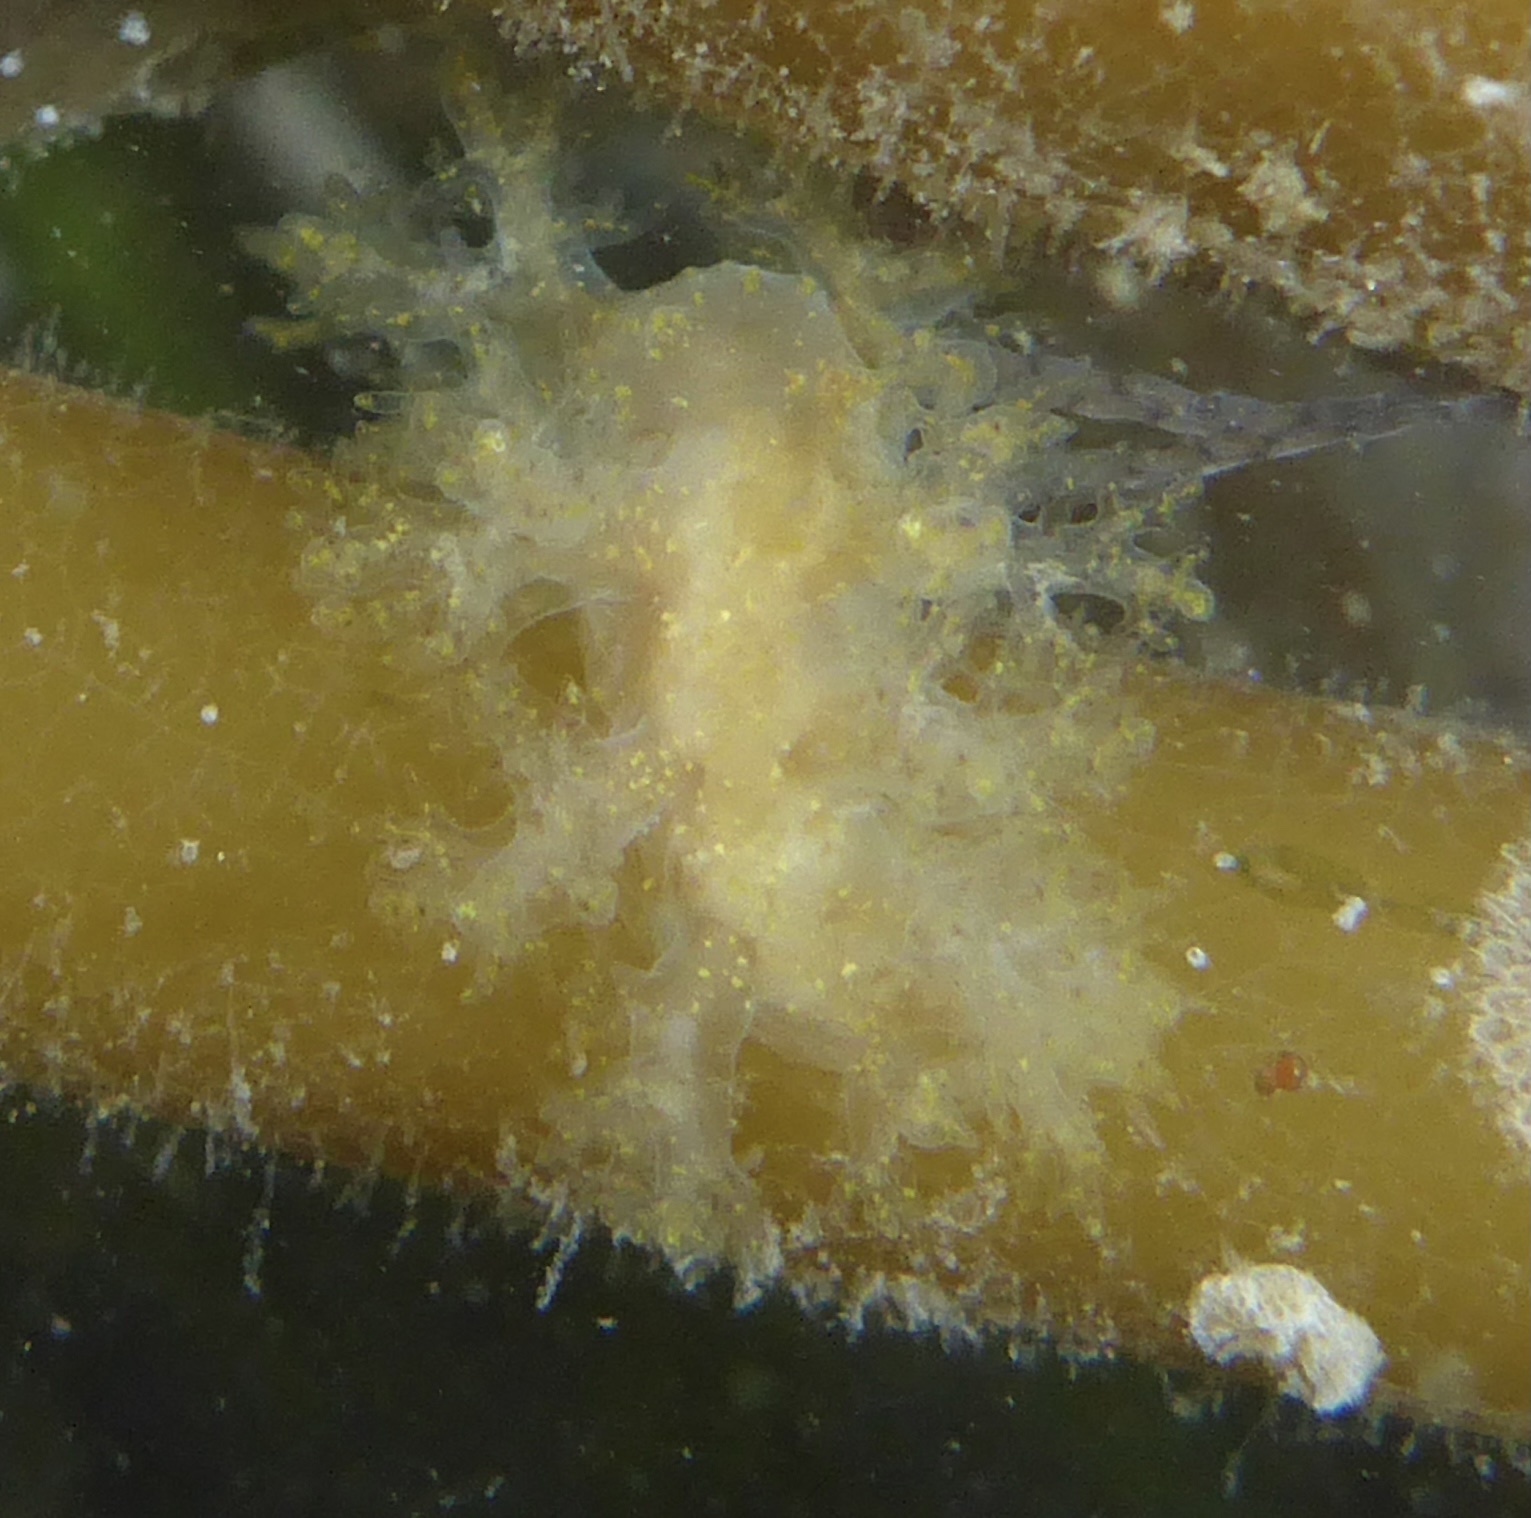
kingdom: Animalia
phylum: Mollusca
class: Gastropoda
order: Nudibranchia
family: Dendronotidae
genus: Dendronotus
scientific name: Dendronotus venustus
